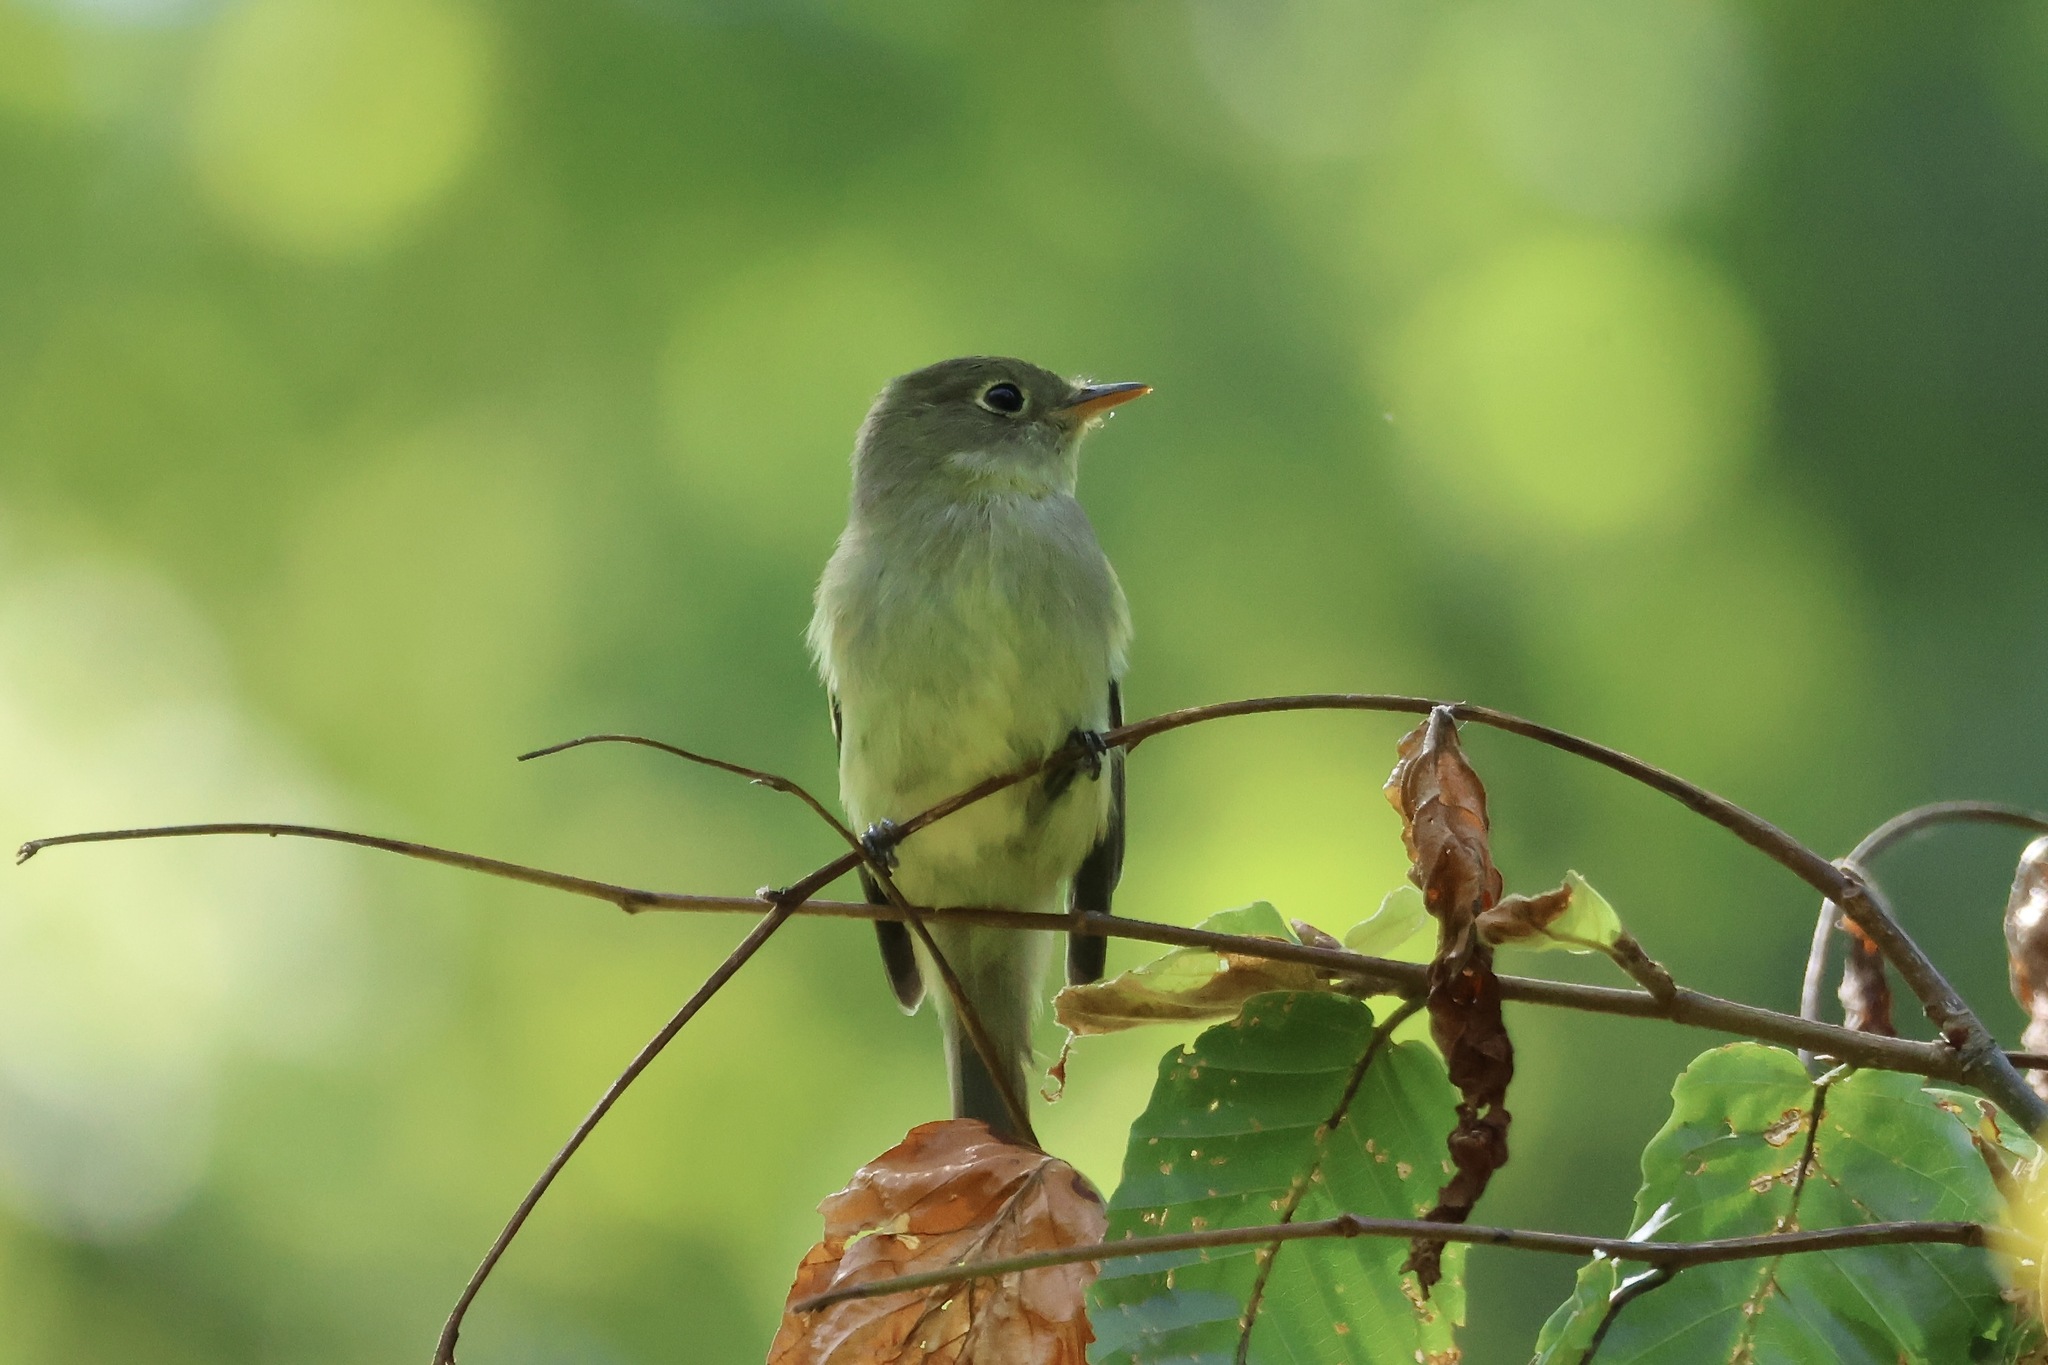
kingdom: Animalia
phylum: Chordata
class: Aves
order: Passeriformes
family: Tyrannidae
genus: Empidonax
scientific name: Empidonax flaviventris
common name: Yellow-bellied flycatcher
